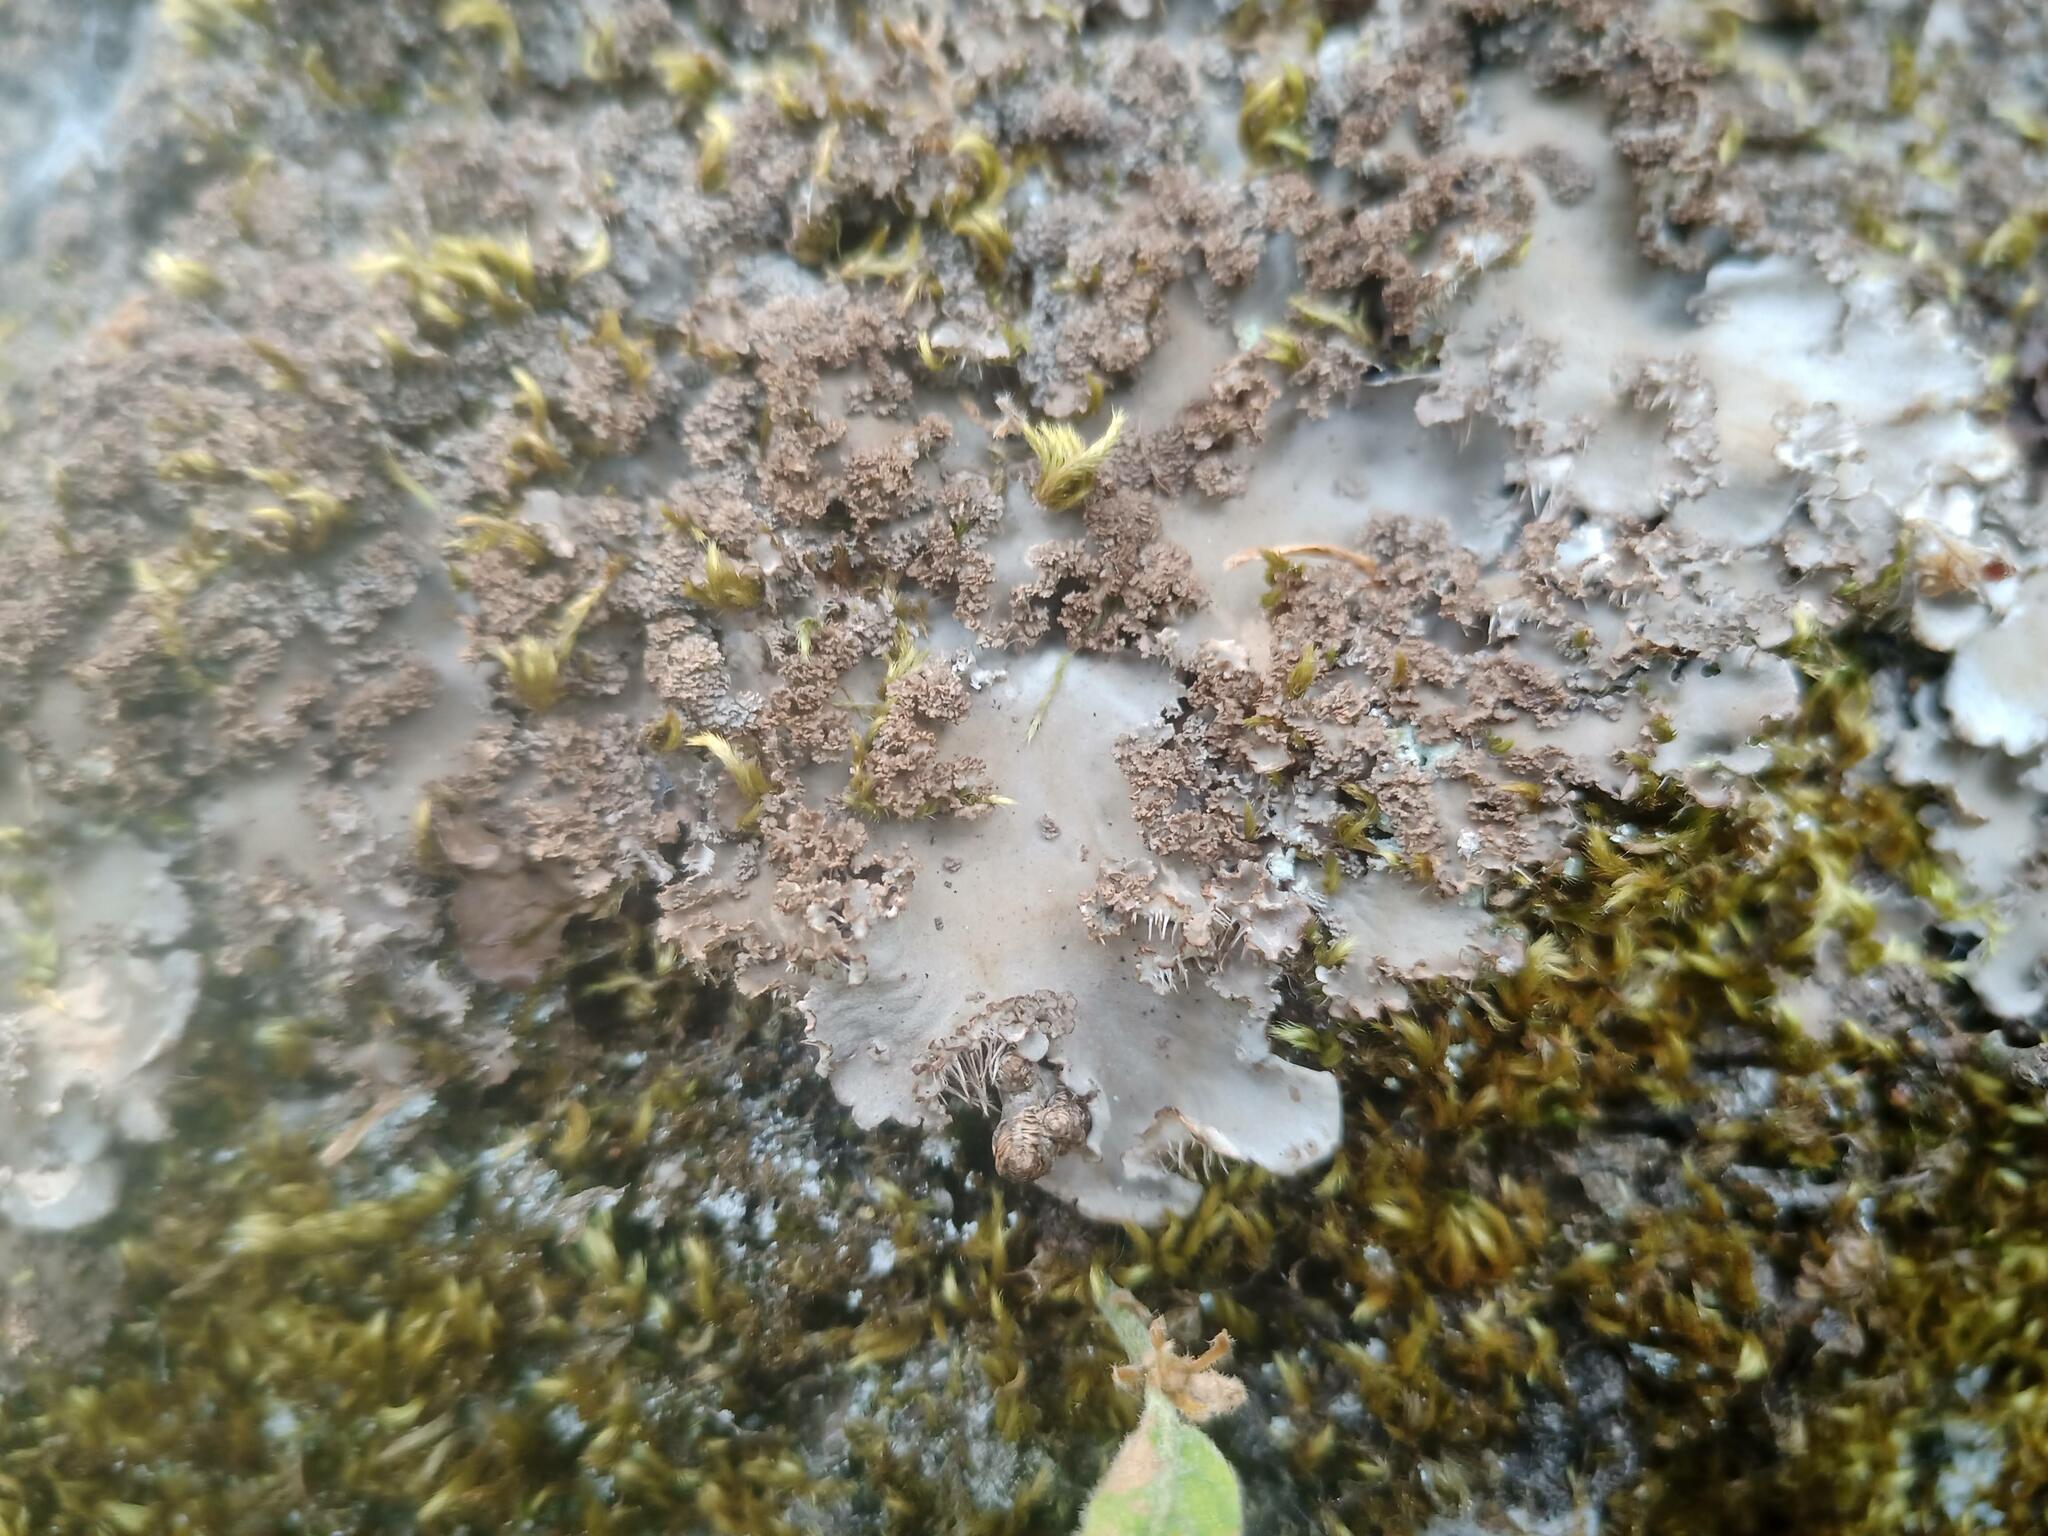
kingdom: Fungi
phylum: Ascomycota
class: Lecanoromycetes
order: Peltigerales
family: Peltigeraceae
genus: Peltigera
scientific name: Peltigera praetextata
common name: Scaly dog-lichen
